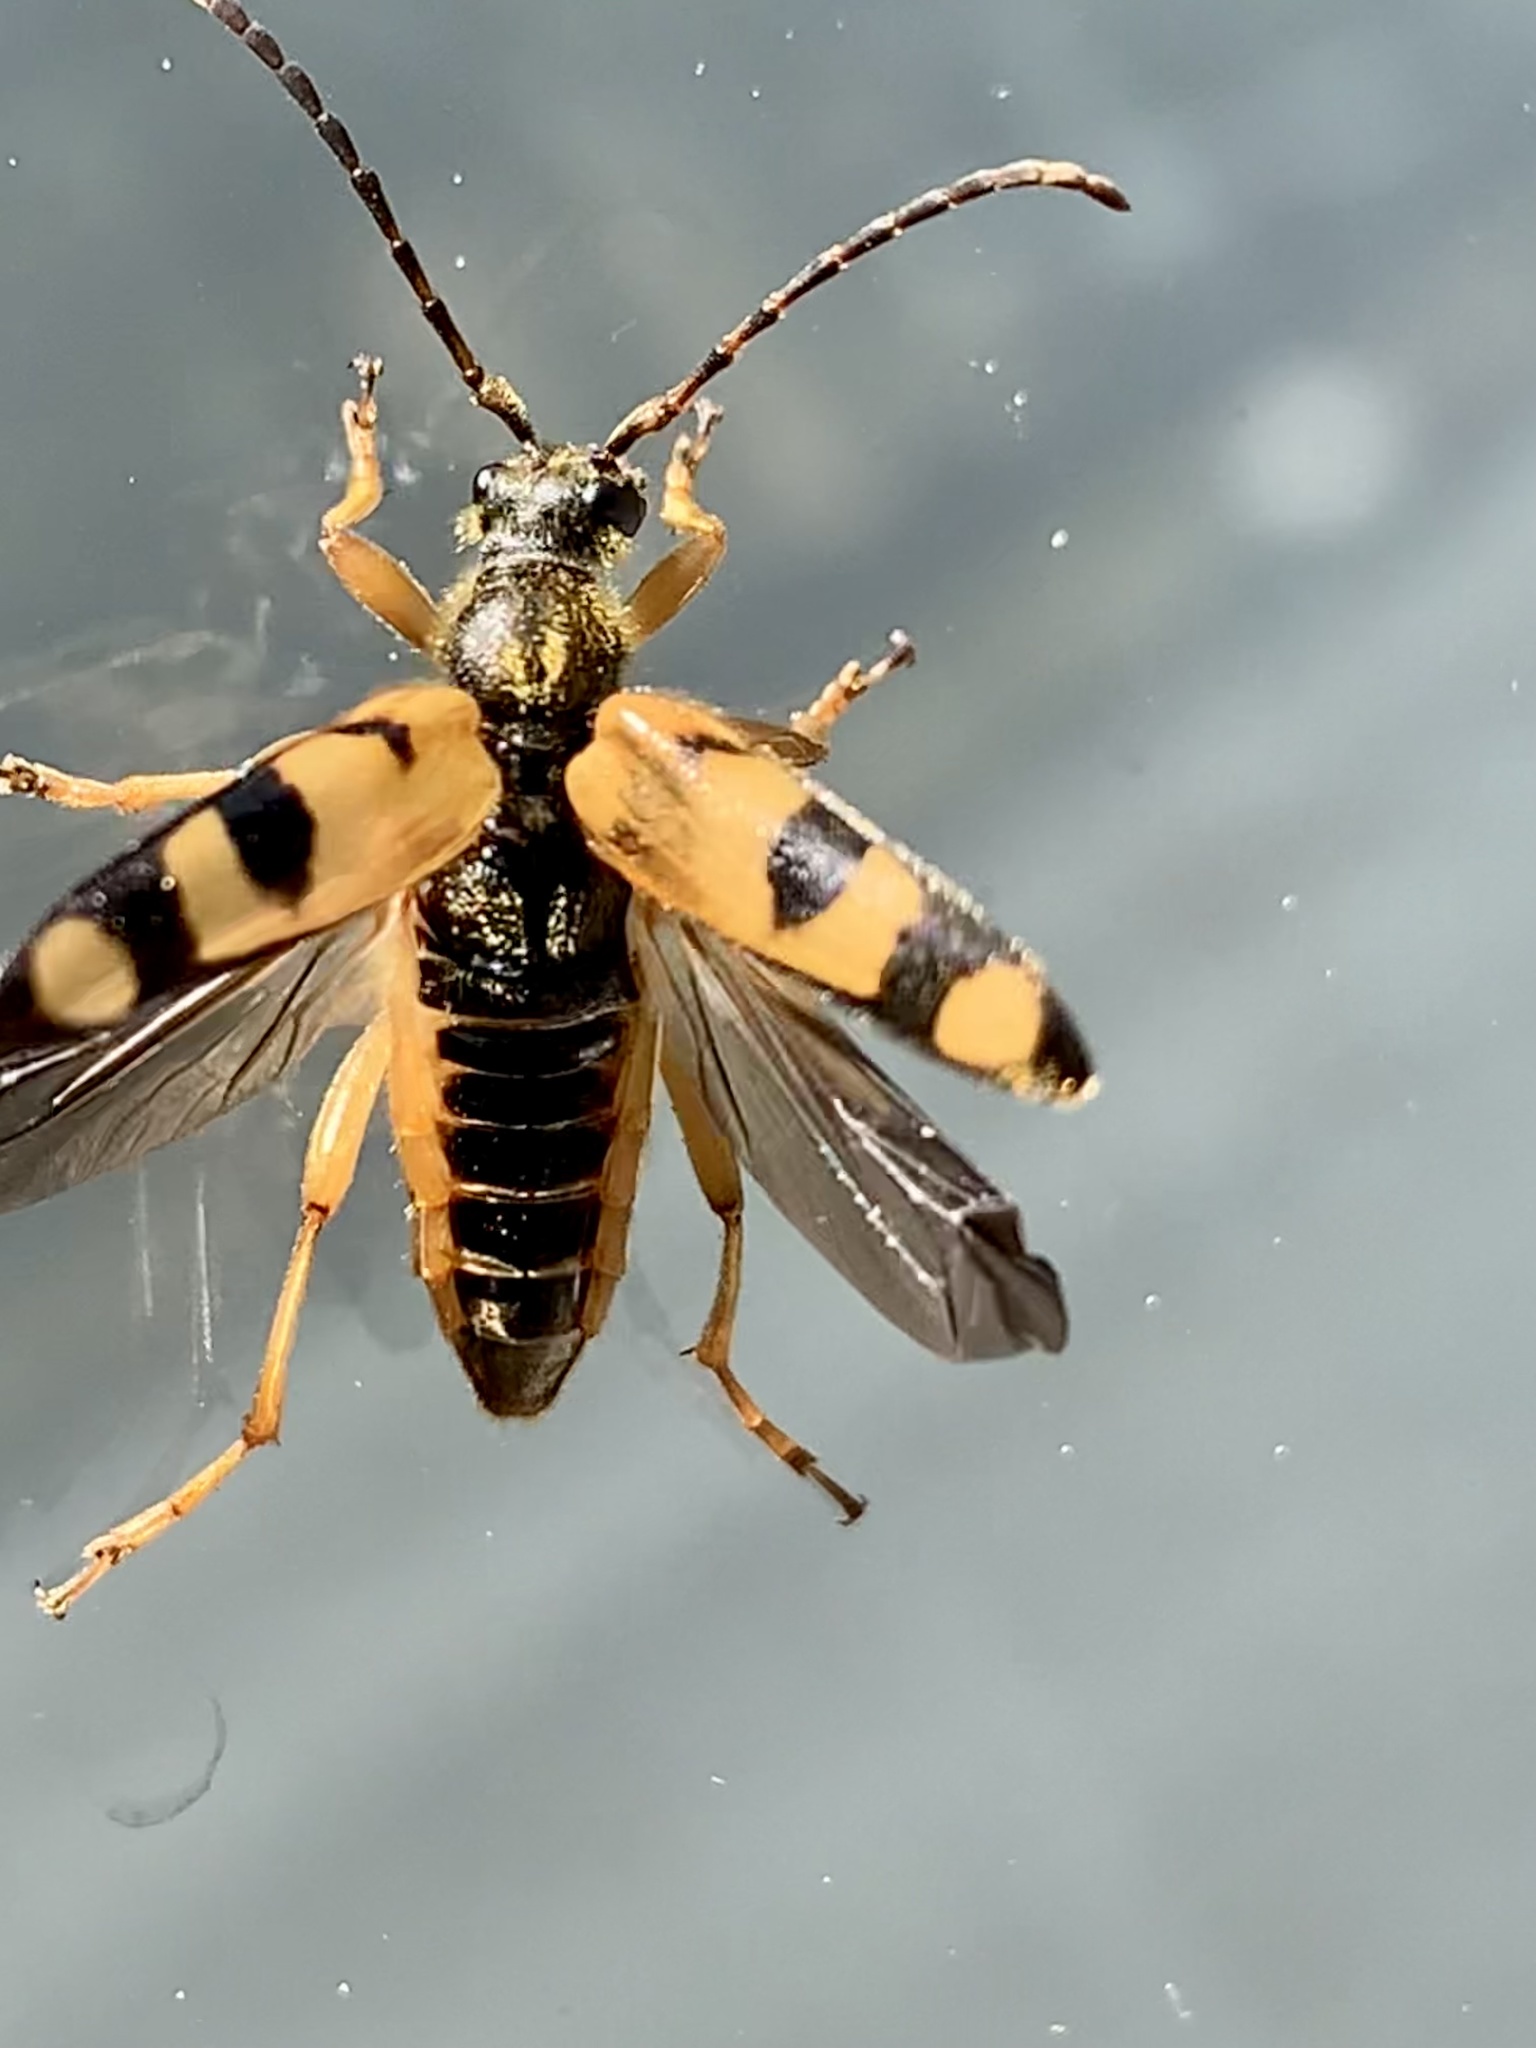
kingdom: Animalia
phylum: Arthropoda
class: Insecta
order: Coleoptera
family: Cerambycidae
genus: Xestoleptura
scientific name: Xestoleptura crassipes
